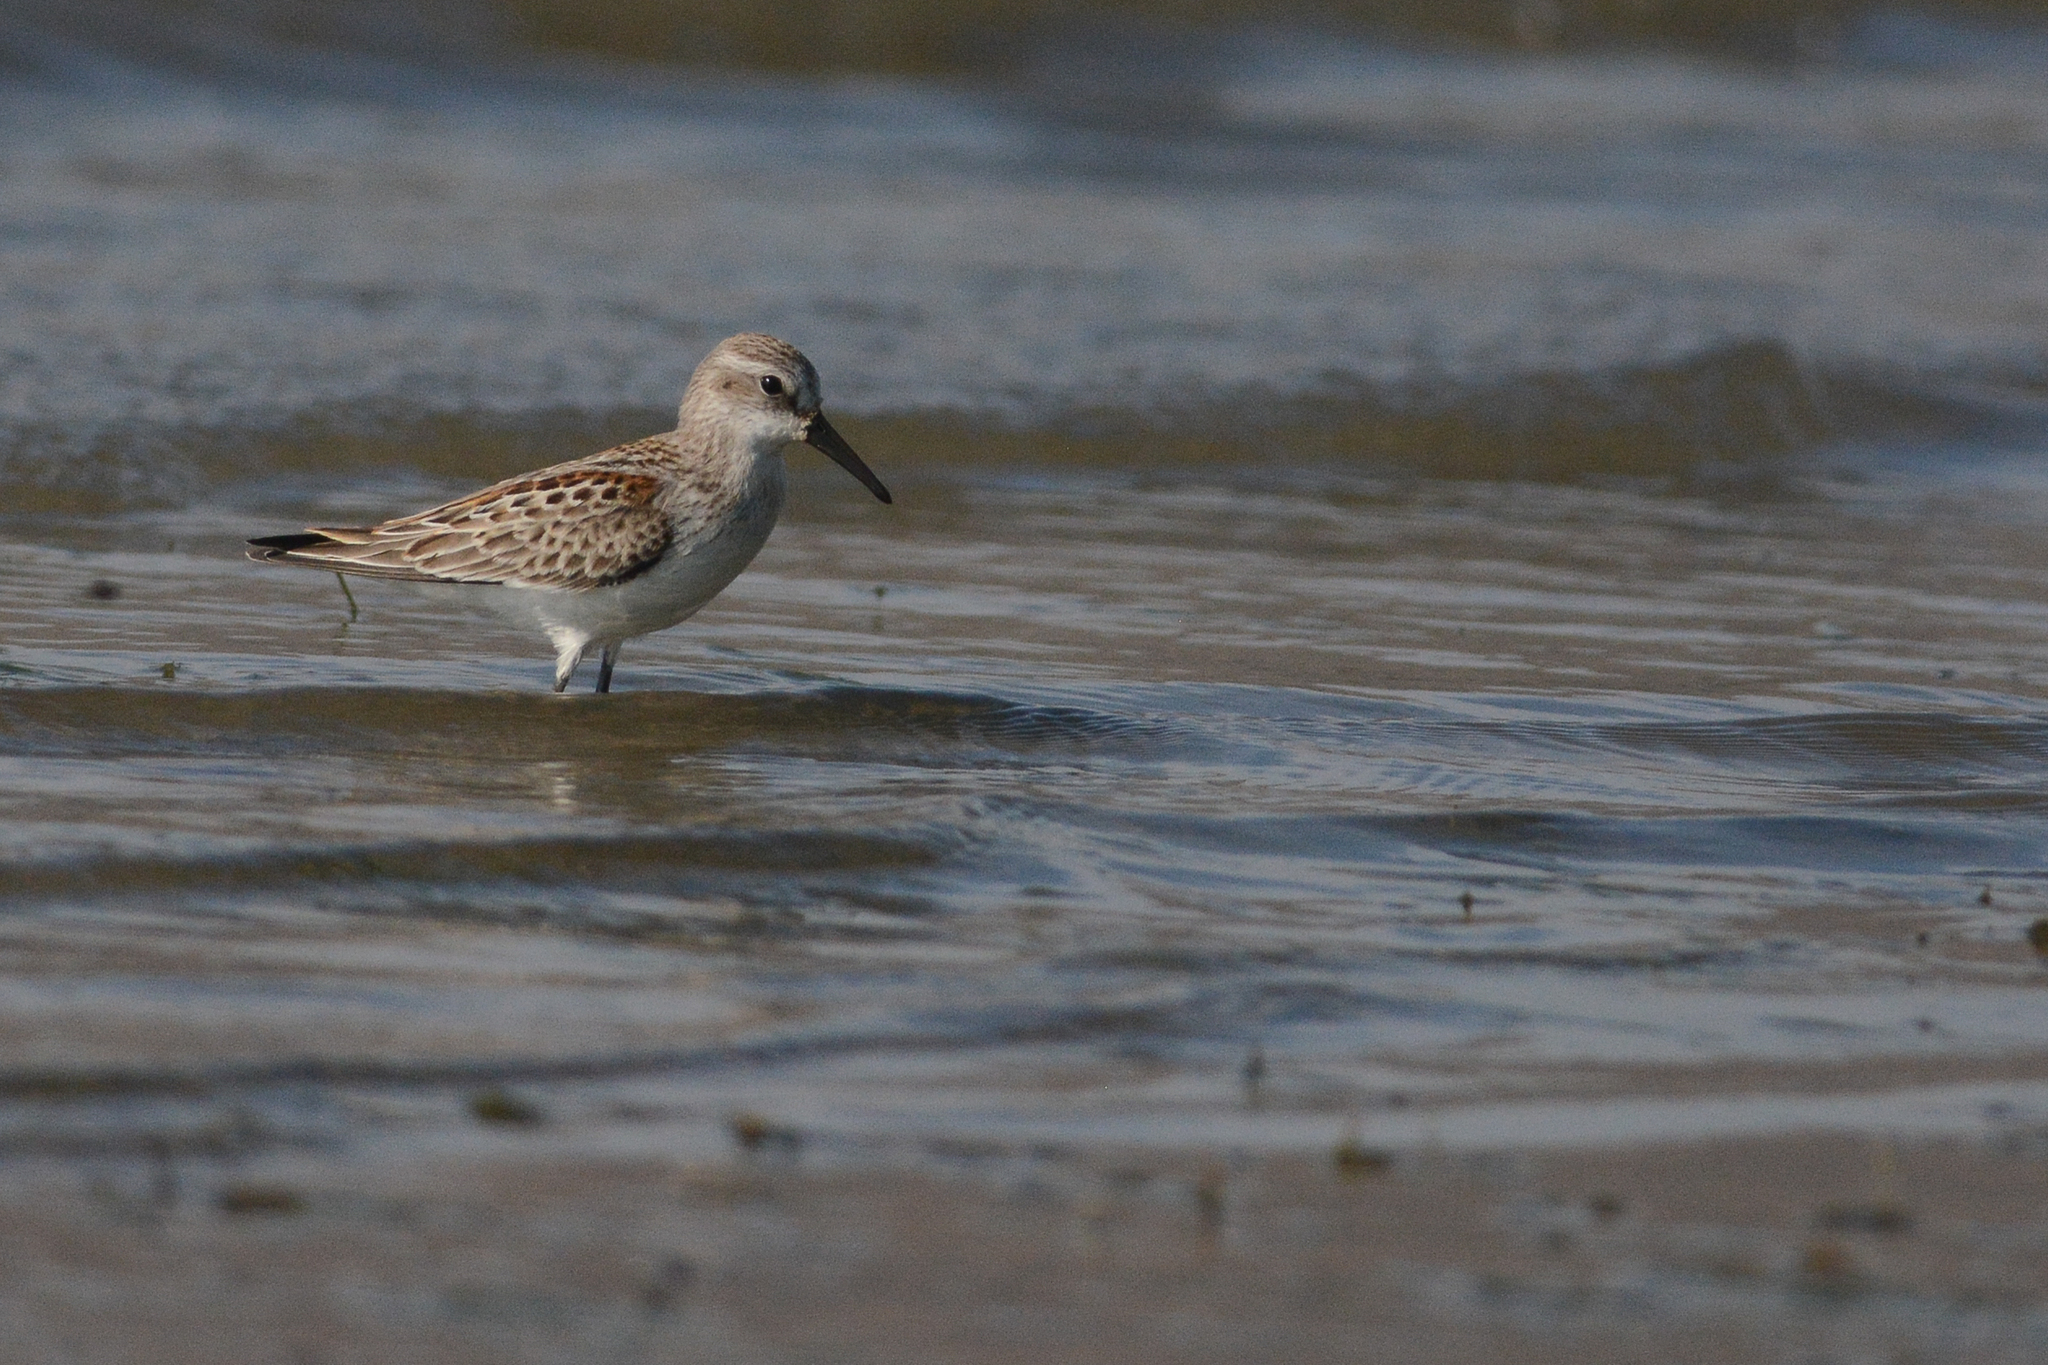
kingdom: Animalia
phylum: Chordata
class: Aves
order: Charadriiformes
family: Scolopacidae
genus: Calidris
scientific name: Calidris mauri
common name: Western sandpiper
